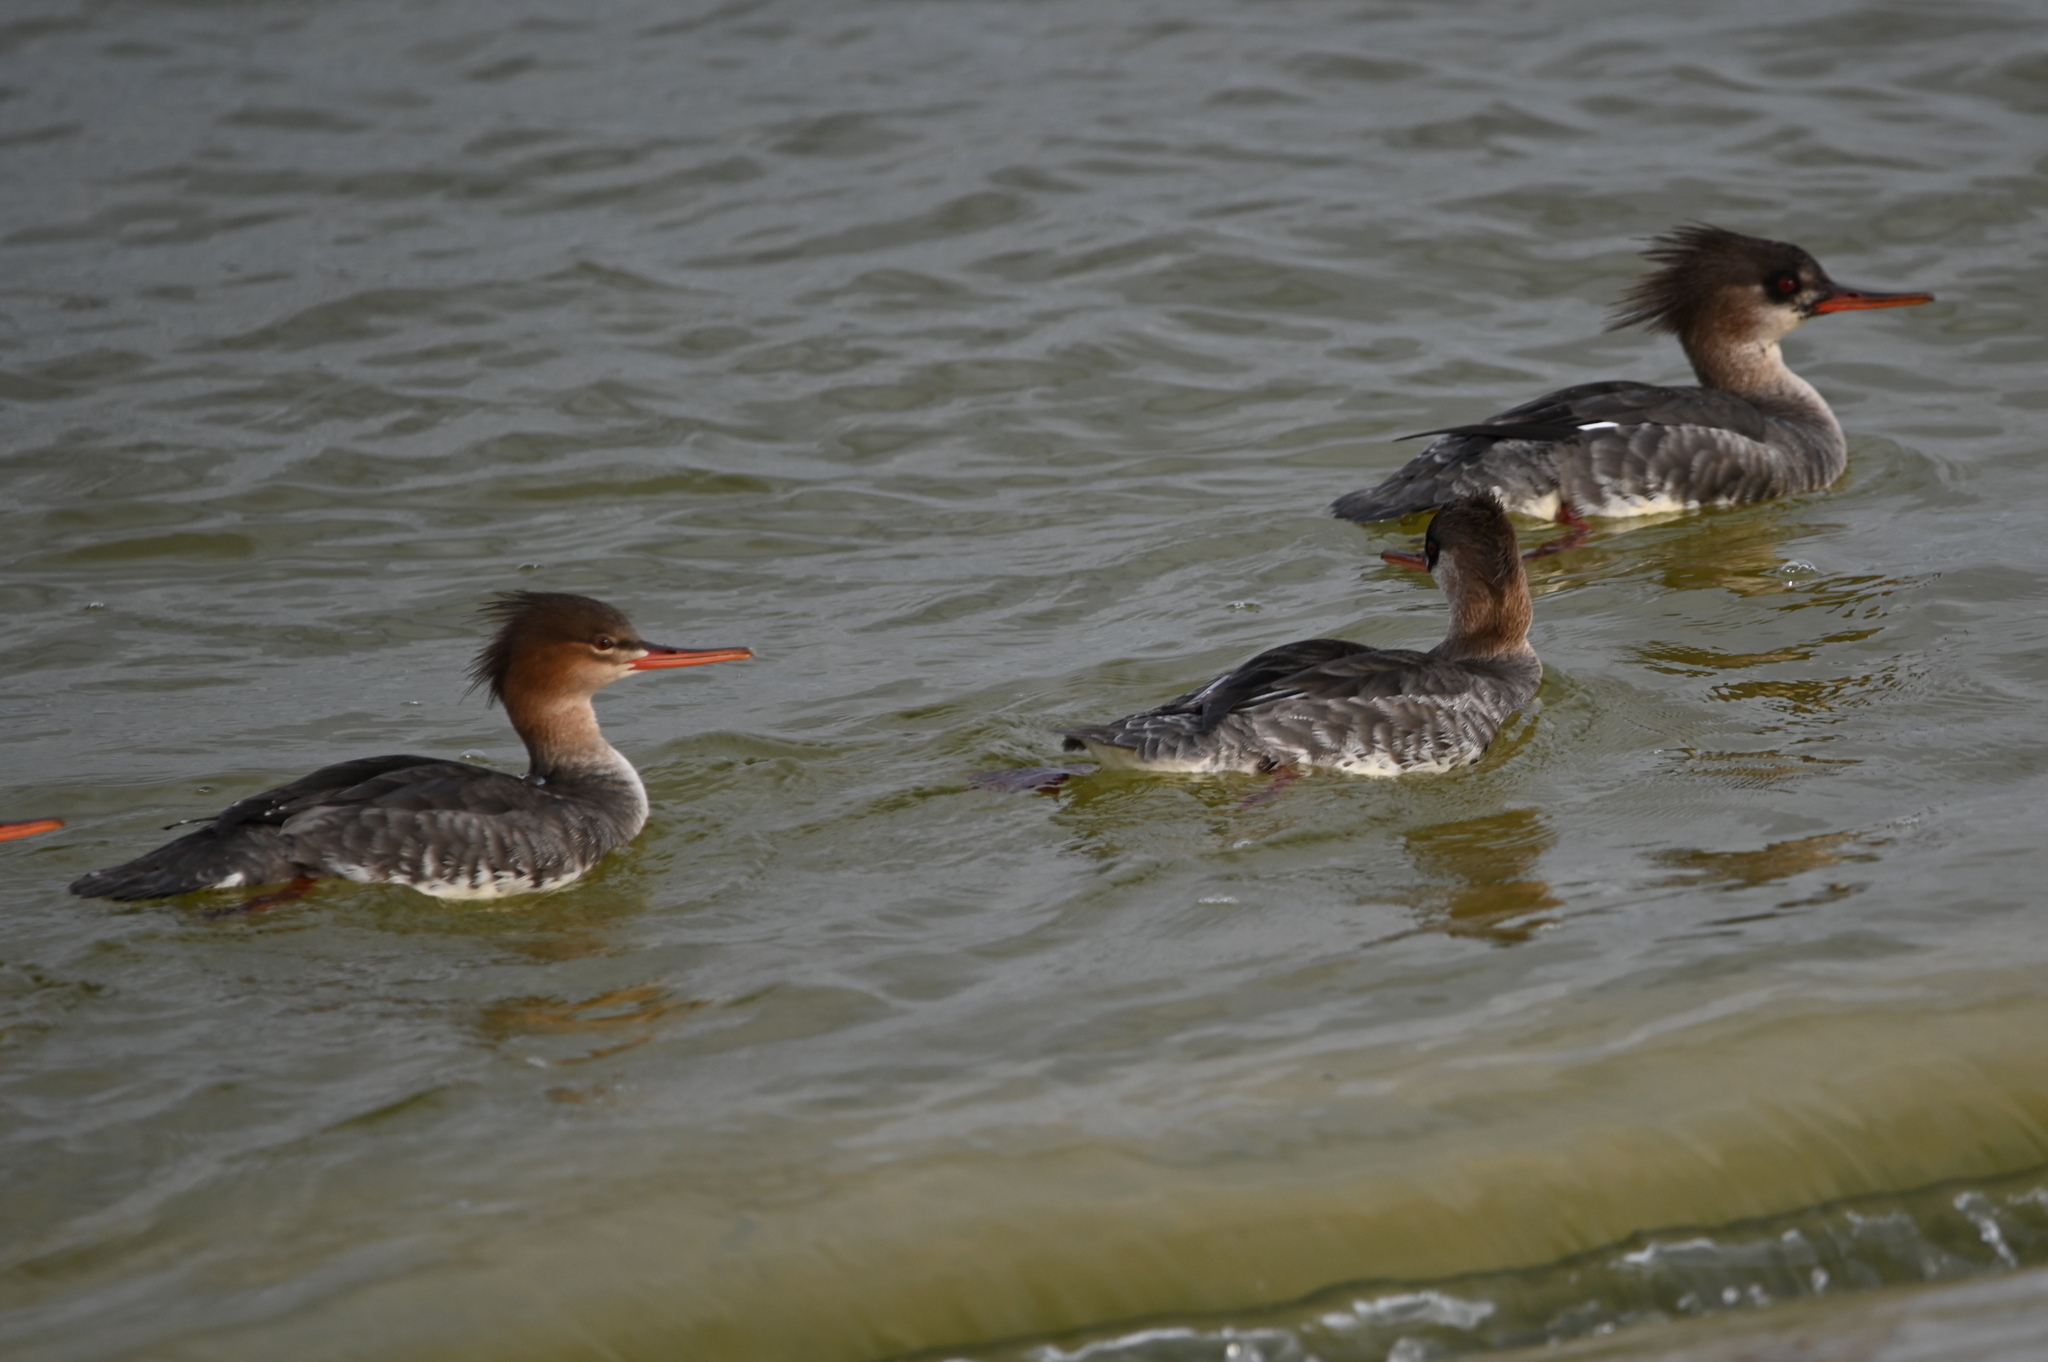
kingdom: Animalia
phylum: Chordata
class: Aves
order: Anseriformes
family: Anatidae
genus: Mergus
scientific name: Mergus serrator
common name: Red-breasted merganser
